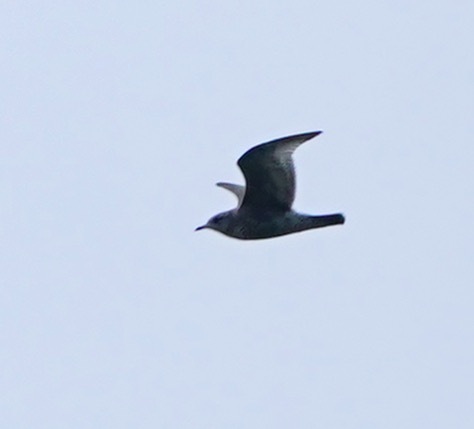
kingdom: Animalia
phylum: Chordata
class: Aves
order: Charadriiformes
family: Laridae
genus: Larus
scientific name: Larus brachyrhynchus
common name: Short-billed gull
